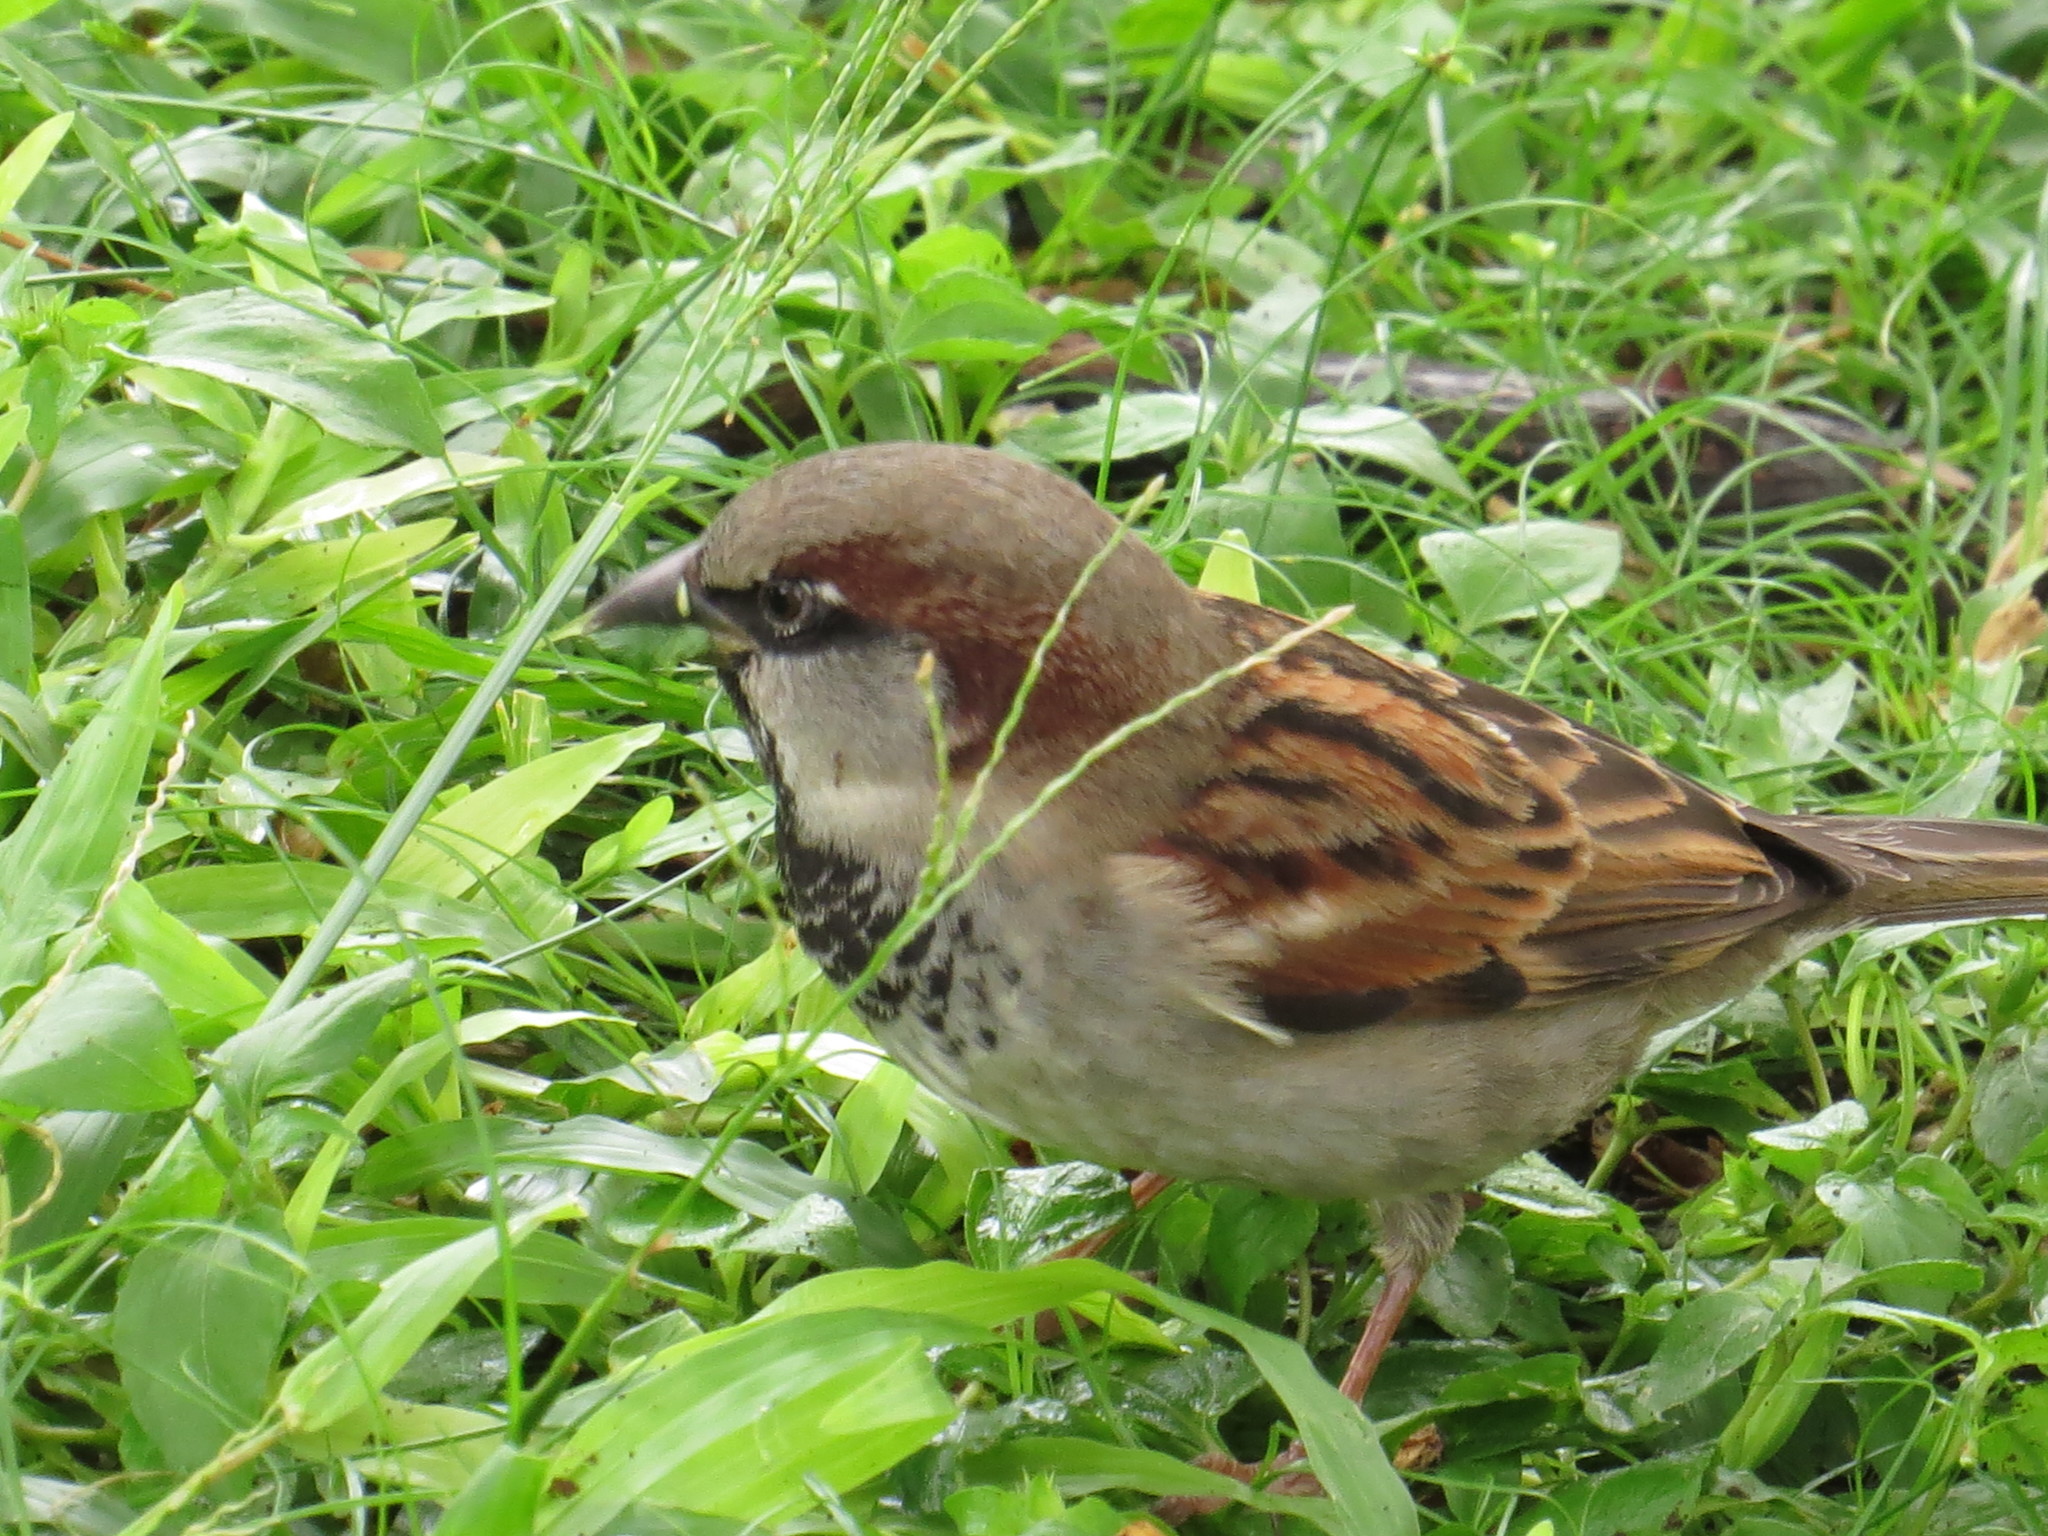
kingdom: Animalia
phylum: Chordata
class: Aves
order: Passeriformes
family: Passeridae
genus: Passer
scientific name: Passer domesticus
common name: House sparrow
